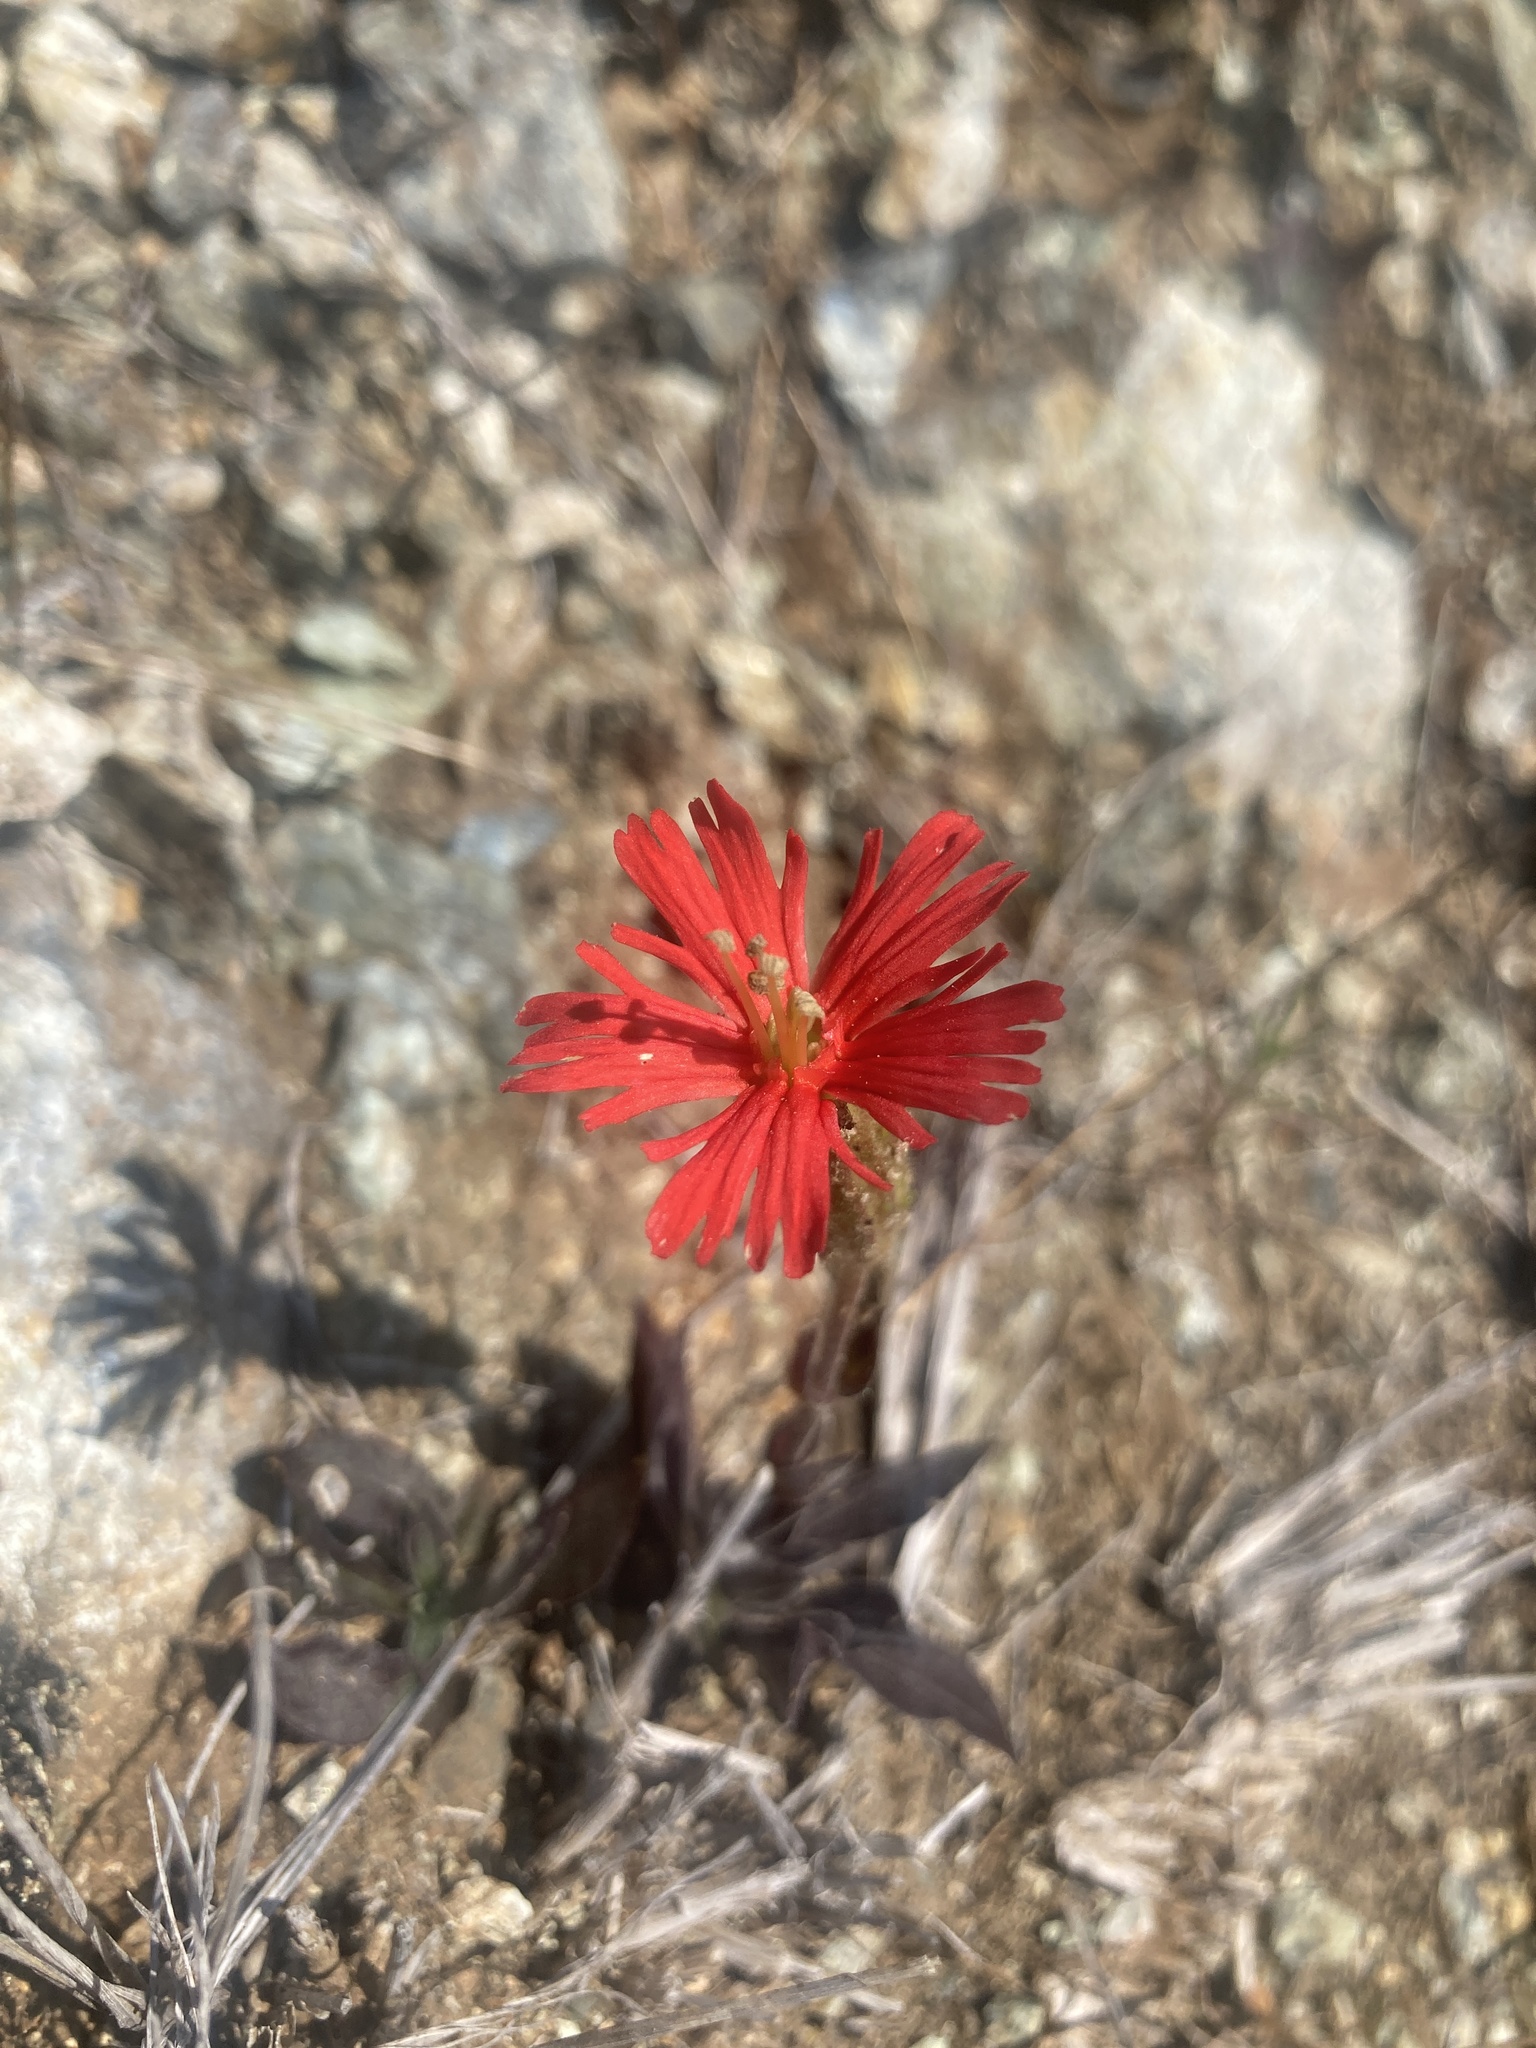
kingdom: Plantae
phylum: Tracheophyta
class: Magnoliopsida
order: Caryophyllales
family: Caryophyllaceae
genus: Silene
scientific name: Silene laciniata
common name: Indian-pink
